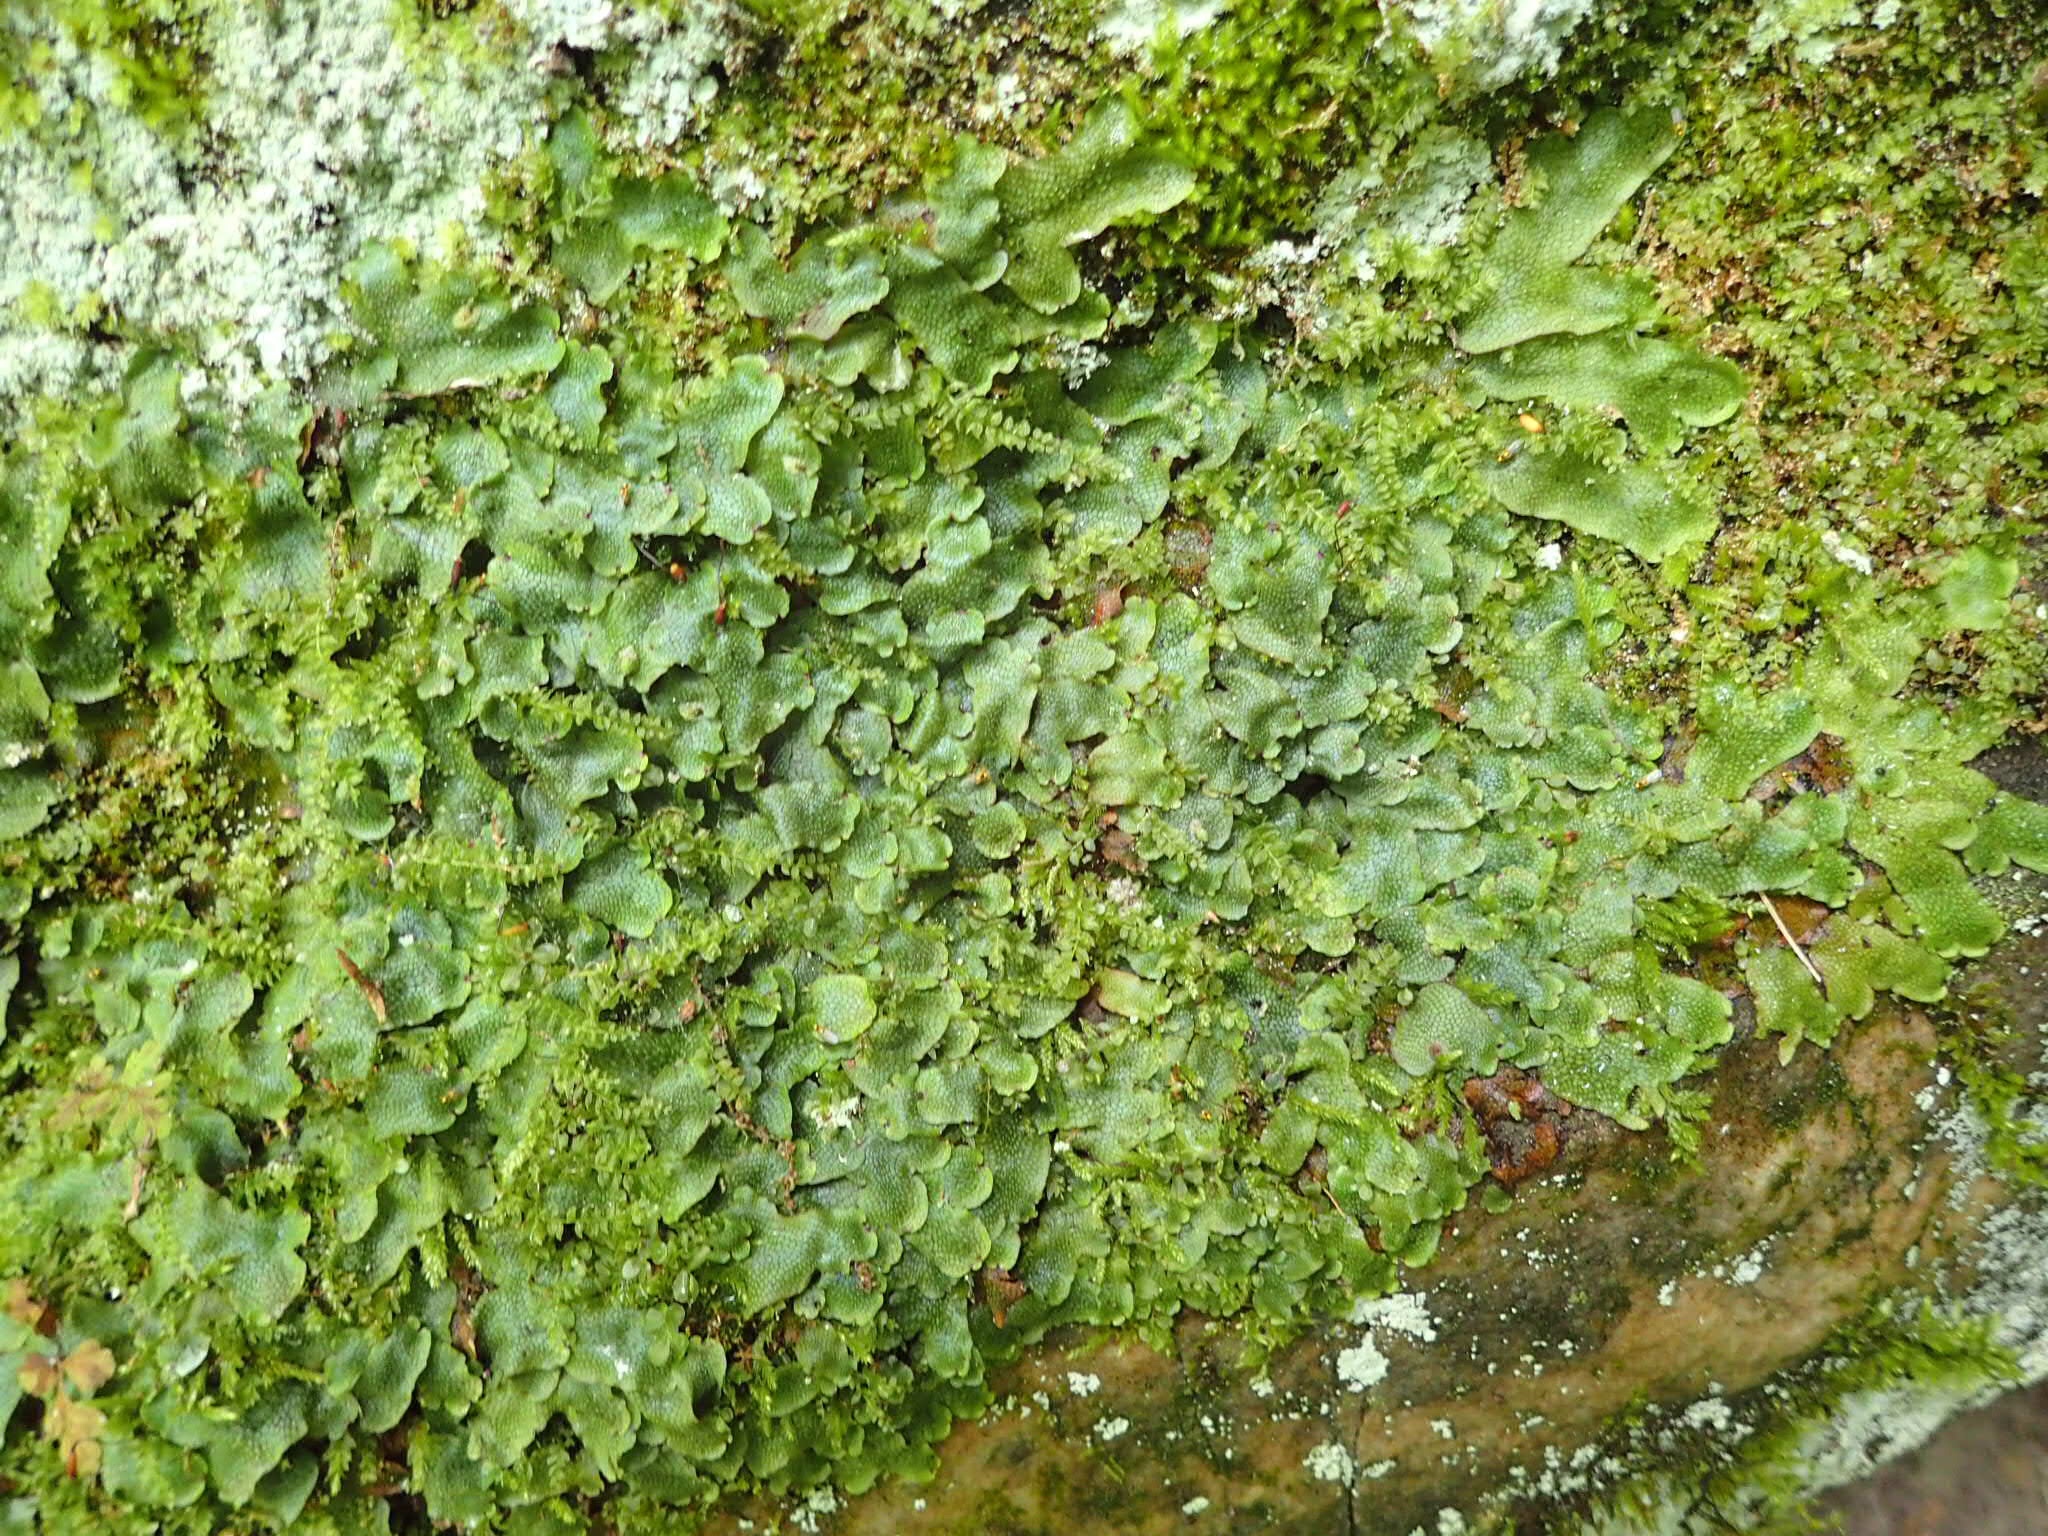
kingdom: Plantae
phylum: Marchantiophyta
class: Marchantiopsida
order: Marchantiales
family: Conocephalaceae
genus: Conocephalum
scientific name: Conocephalum salebrosum
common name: Cat-tongue liverwort
